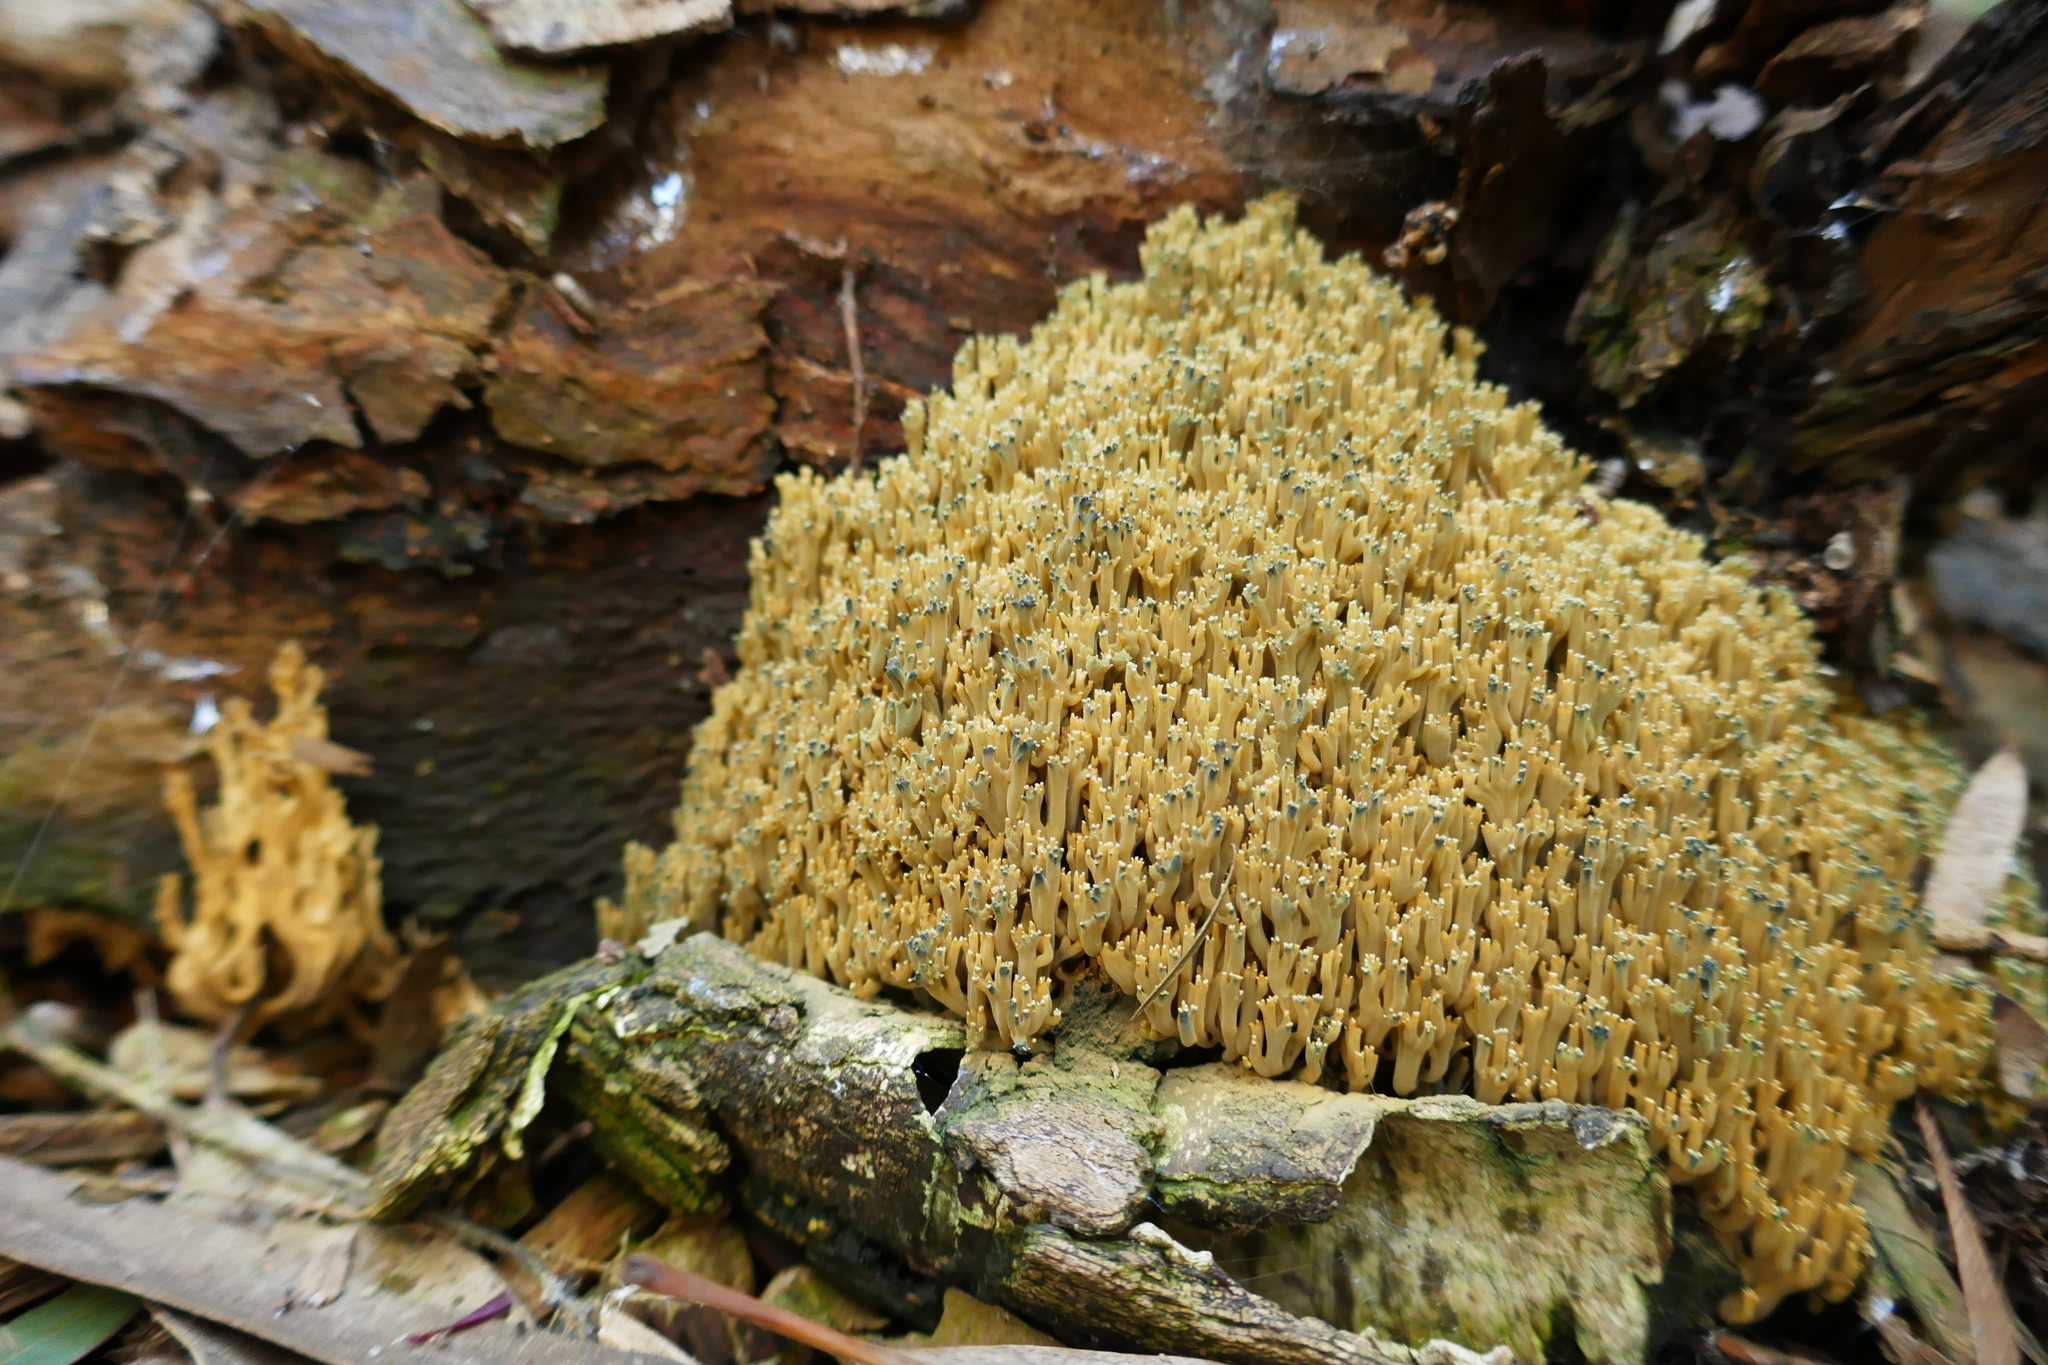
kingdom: Fungi
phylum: Basidiomycota
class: Agaricomycetes
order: Gomphales
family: Gomphaceae
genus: Phaeoclavulina
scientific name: Phaeoclavulina
